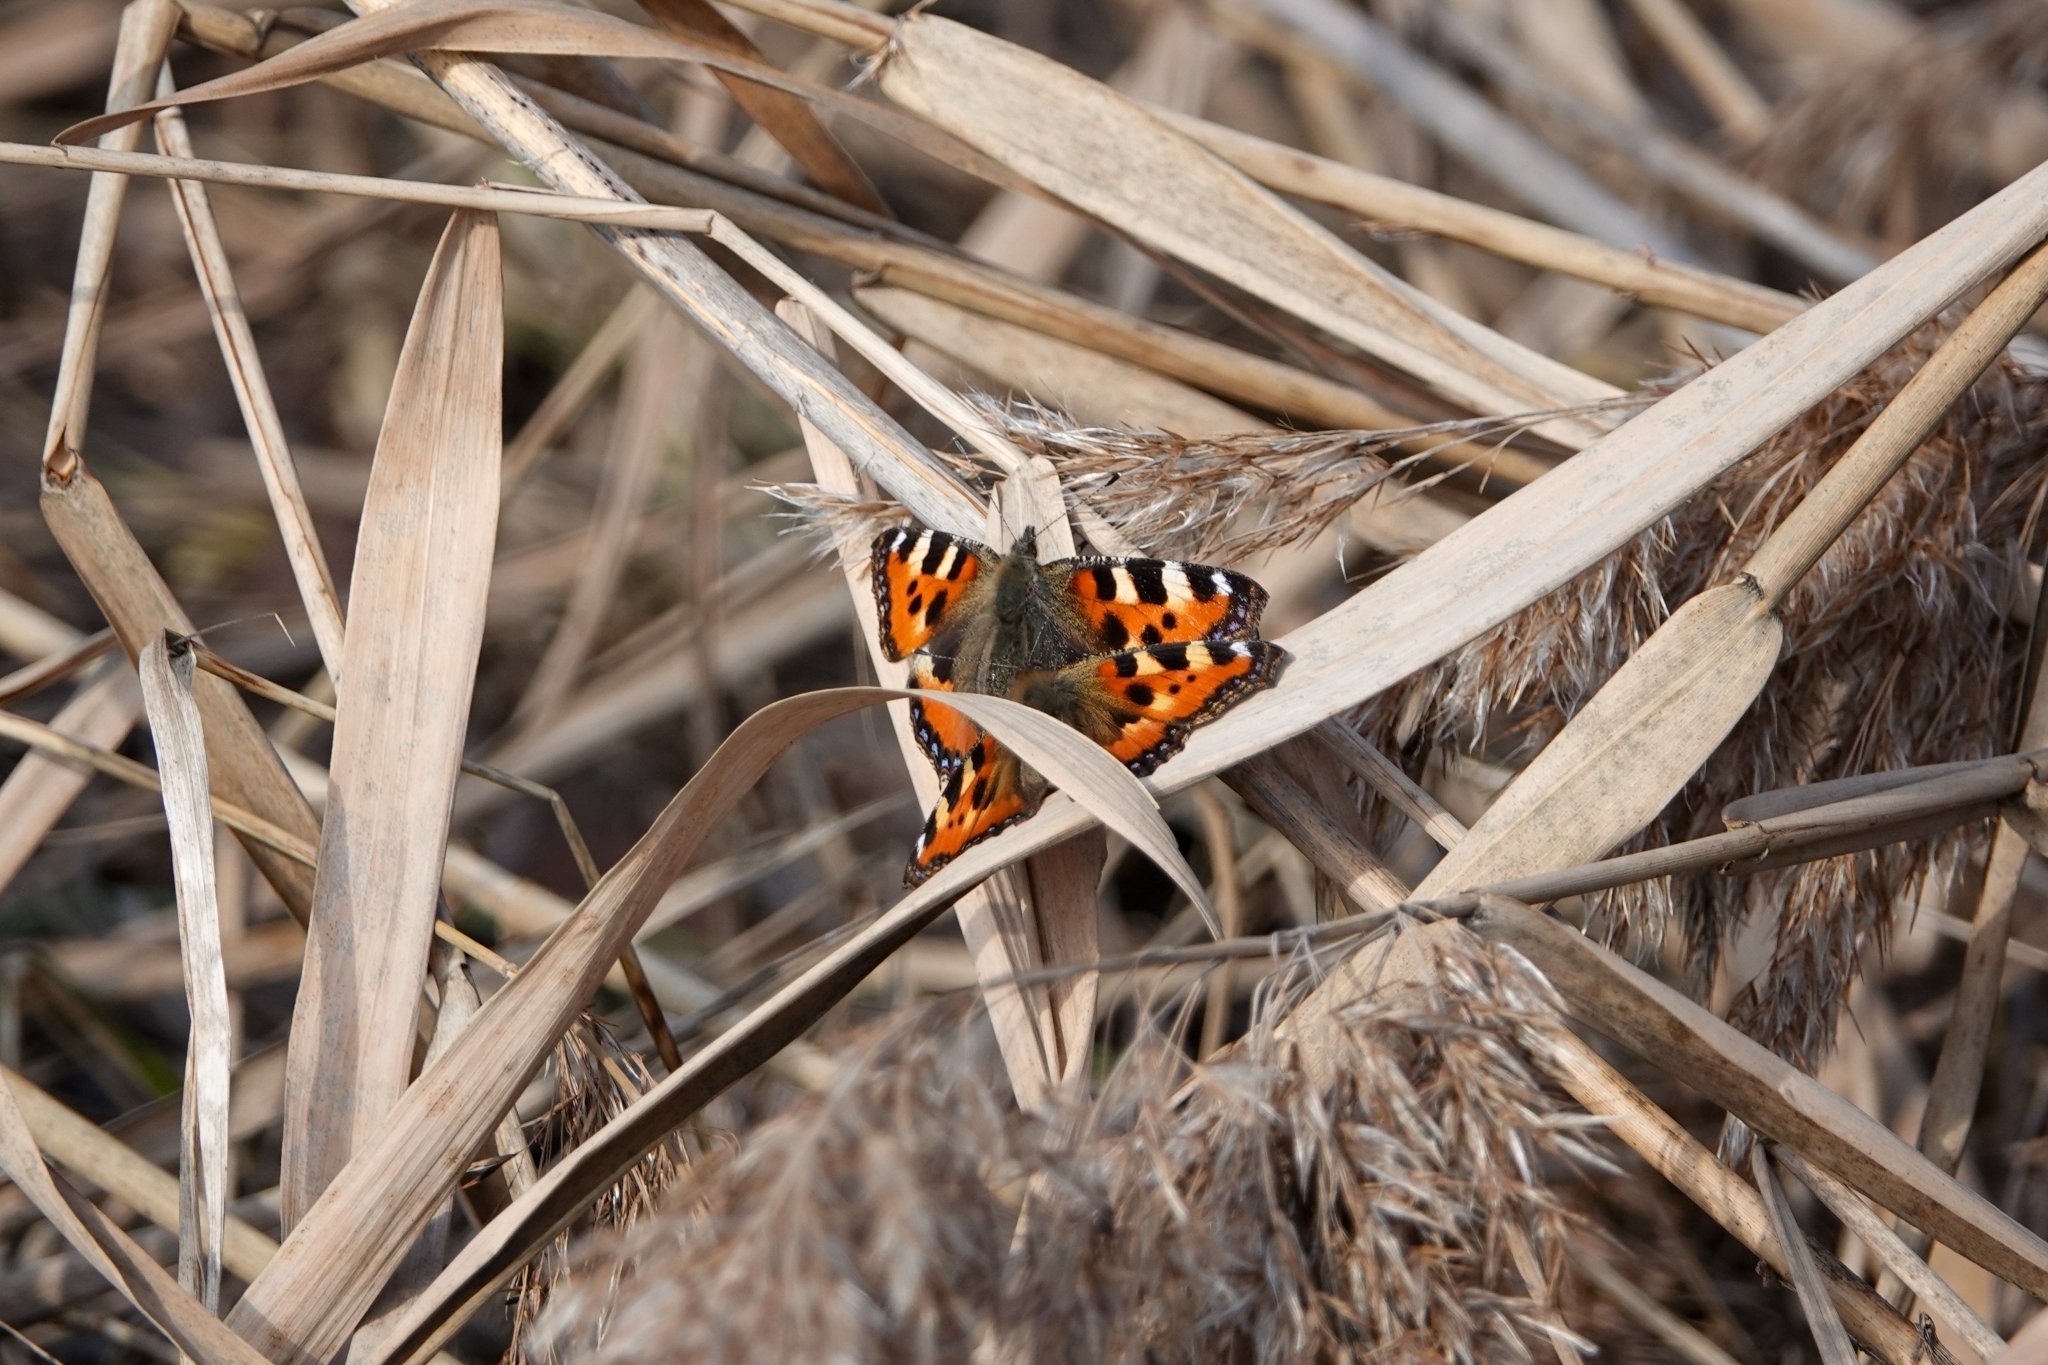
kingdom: Animalia
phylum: Arthropoda
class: Insecta
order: Lepidoptera
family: Nymphalidae
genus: Aglais
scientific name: Aglais urticae
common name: Small tortoiseshell
